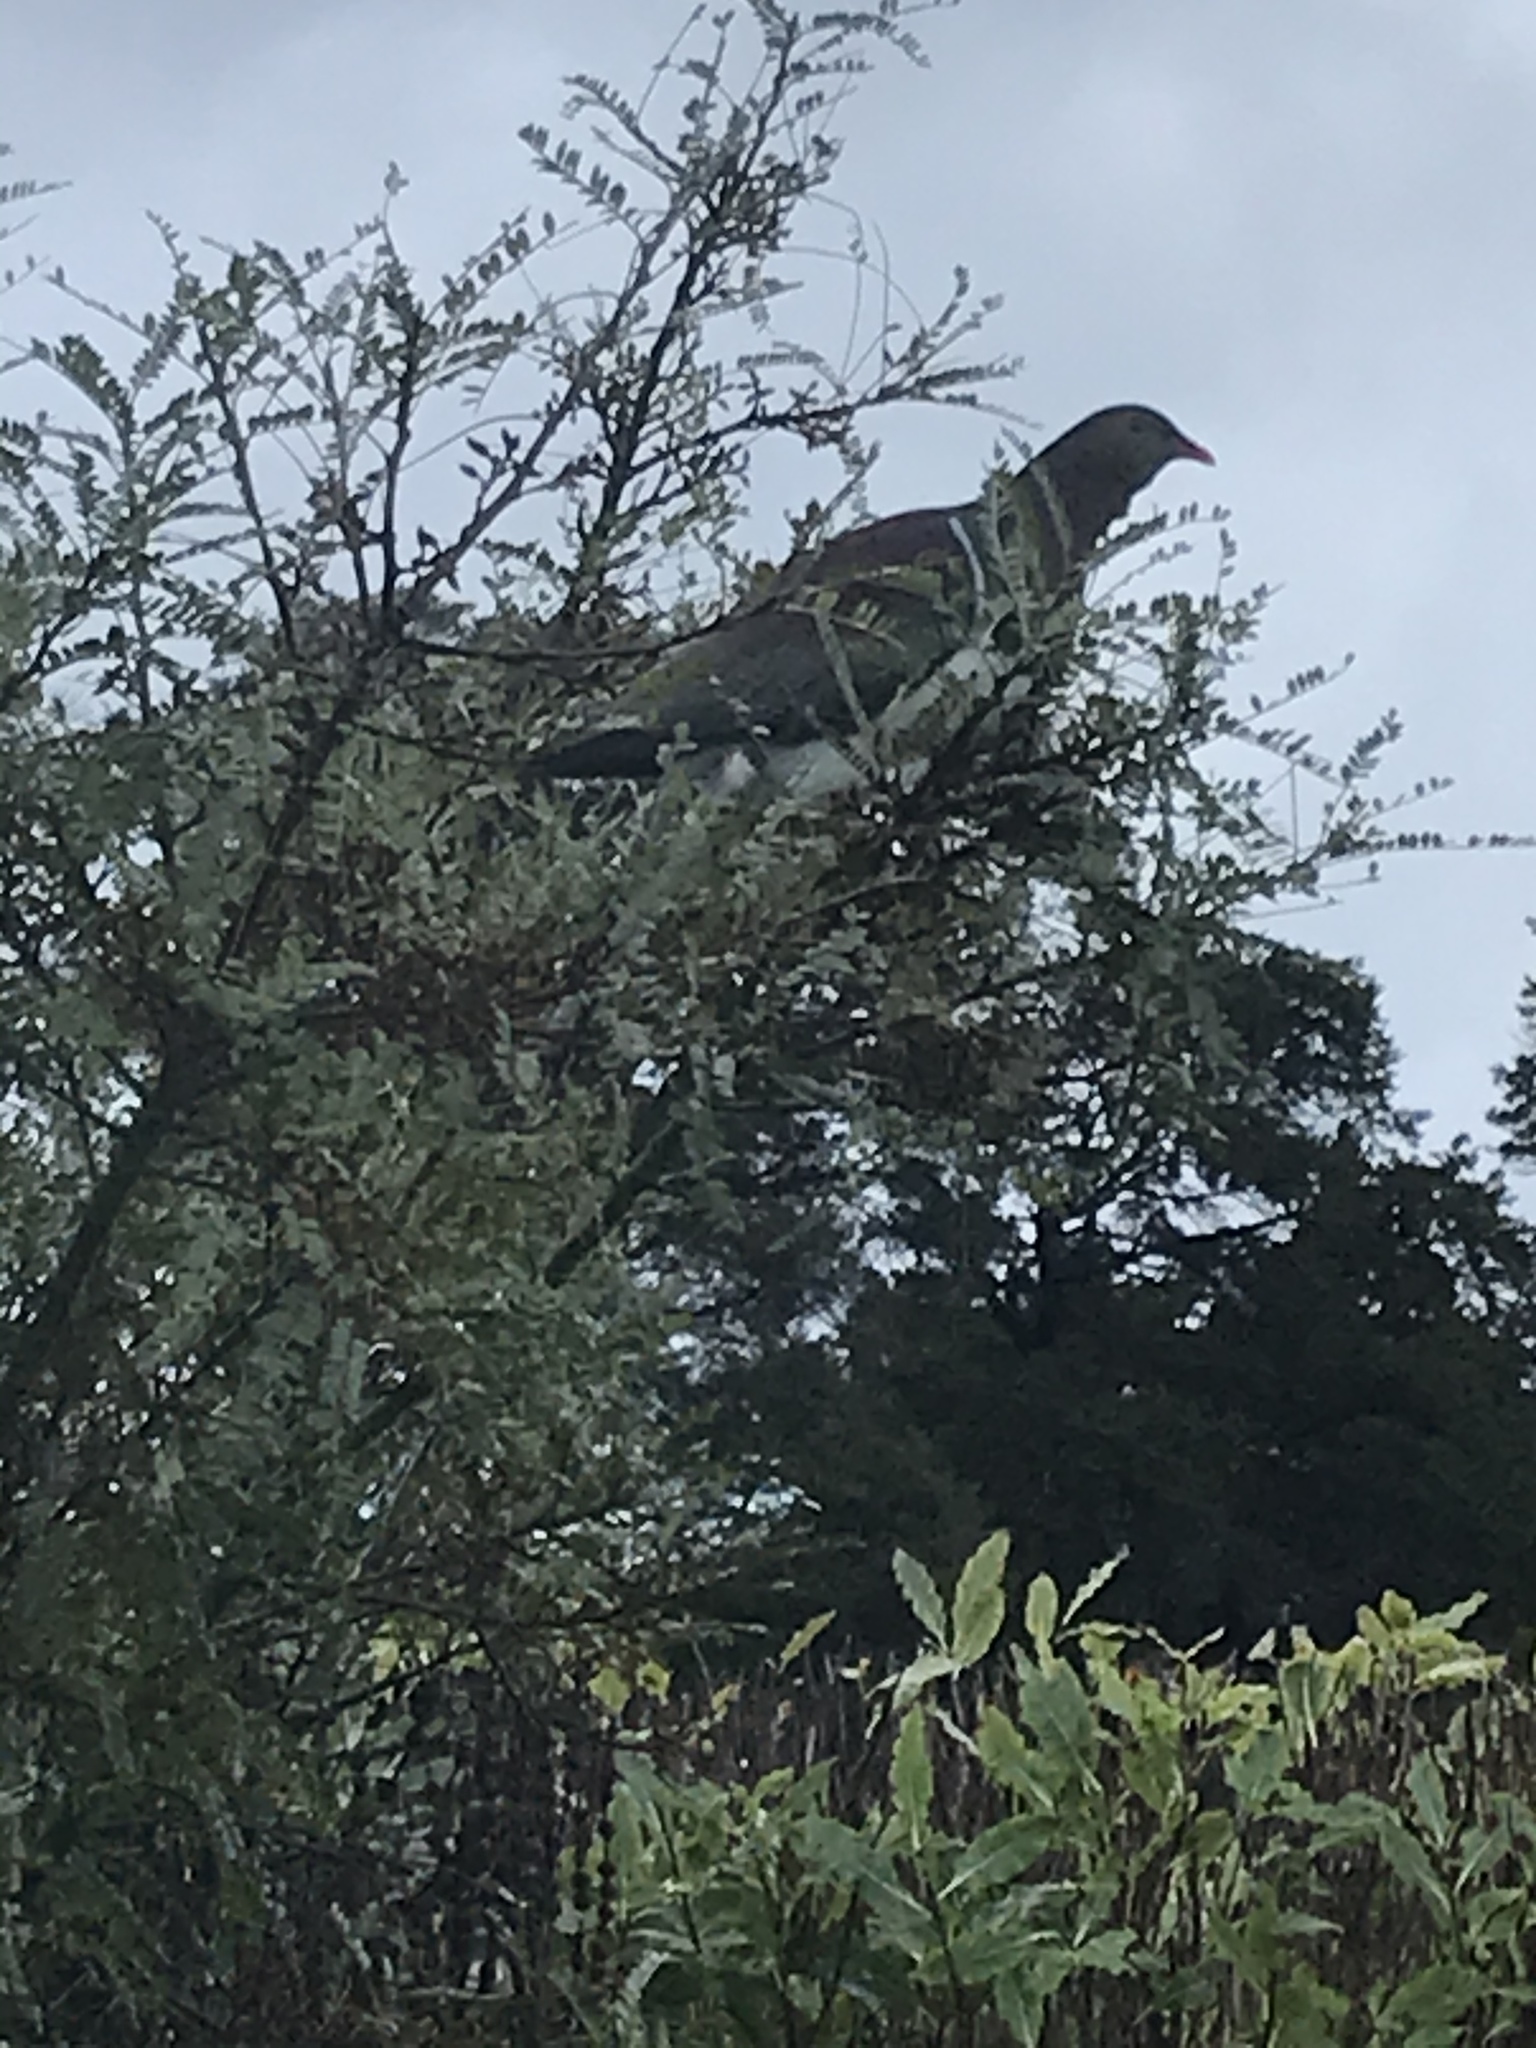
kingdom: Animalia
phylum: Chordata
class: Aves
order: Columbiformes
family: Columbidae
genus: Hemiphaga
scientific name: Hemiphaga novaeseelandiae
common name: New zealand pigeon
